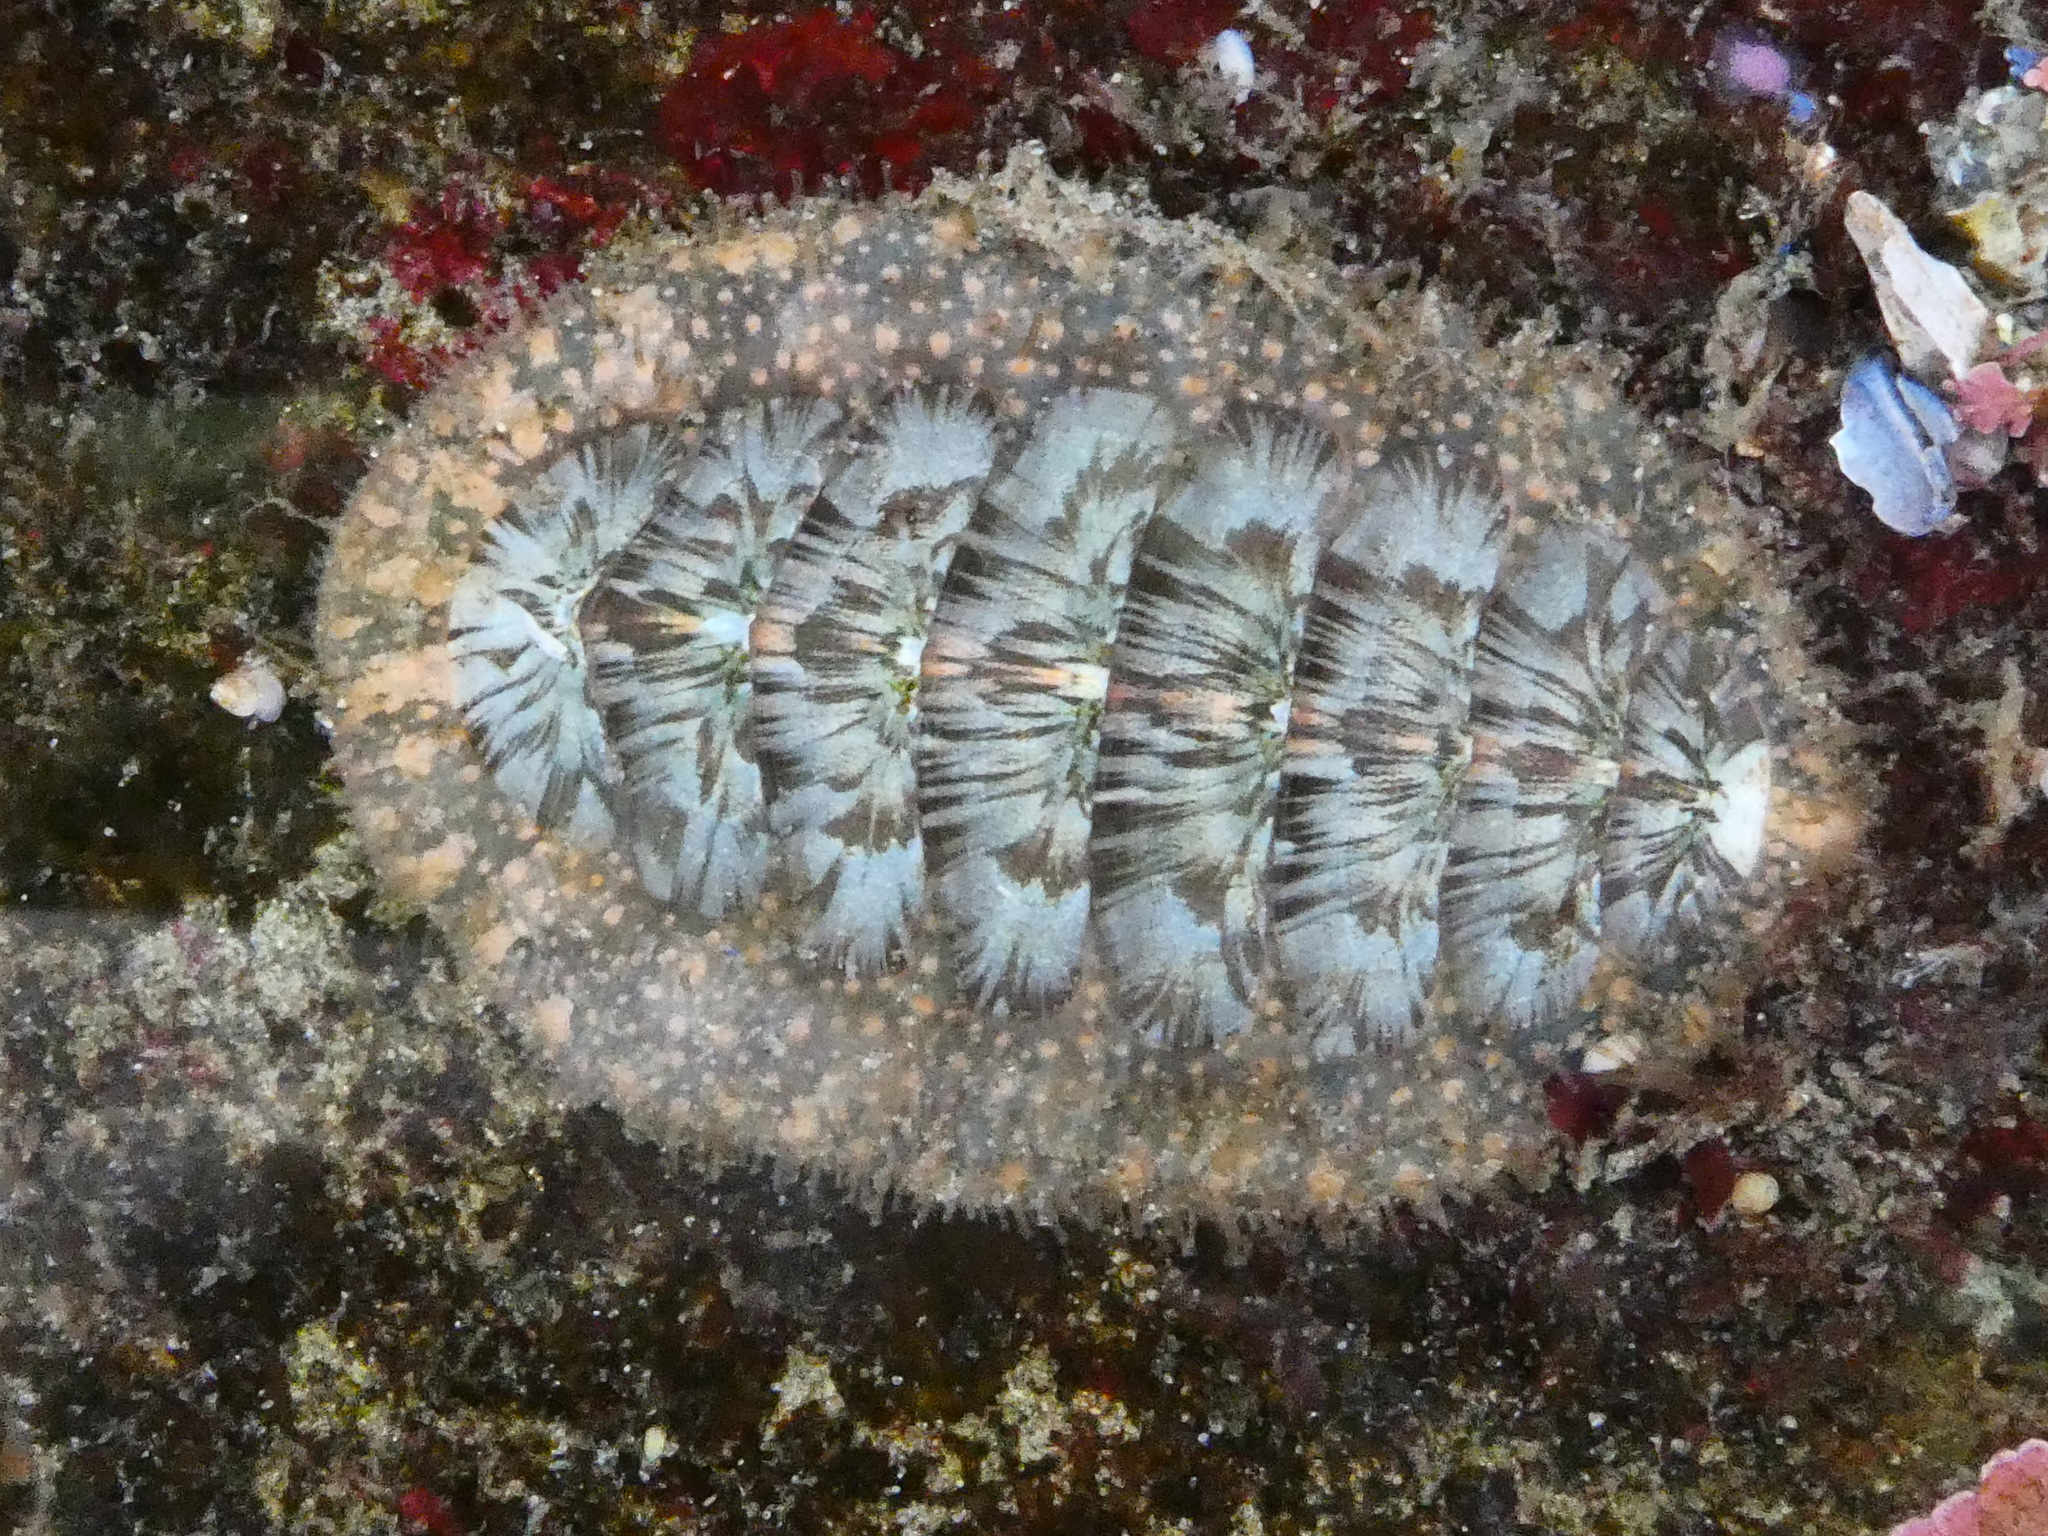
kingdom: Animalia
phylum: Mollusca
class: Polyplacophora
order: Chitonida
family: Mopaliidae
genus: Mopalia
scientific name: Mopalia lignosa
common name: Woody chiton
